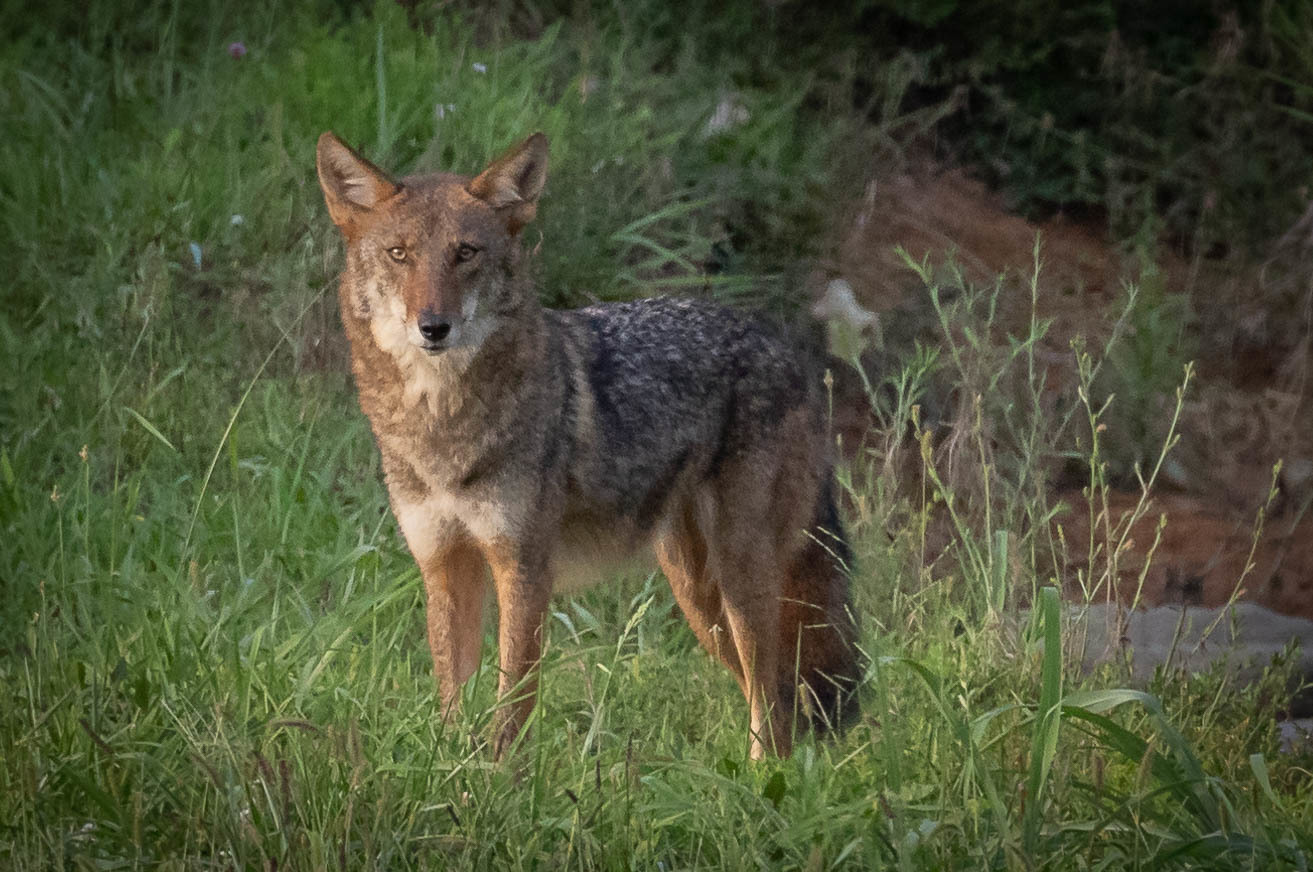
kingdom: Animalia
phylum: Chordata
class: Mammalia
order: Carnivora
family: Canidae
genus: Canis
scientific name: Canis latrans
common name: Coyote
